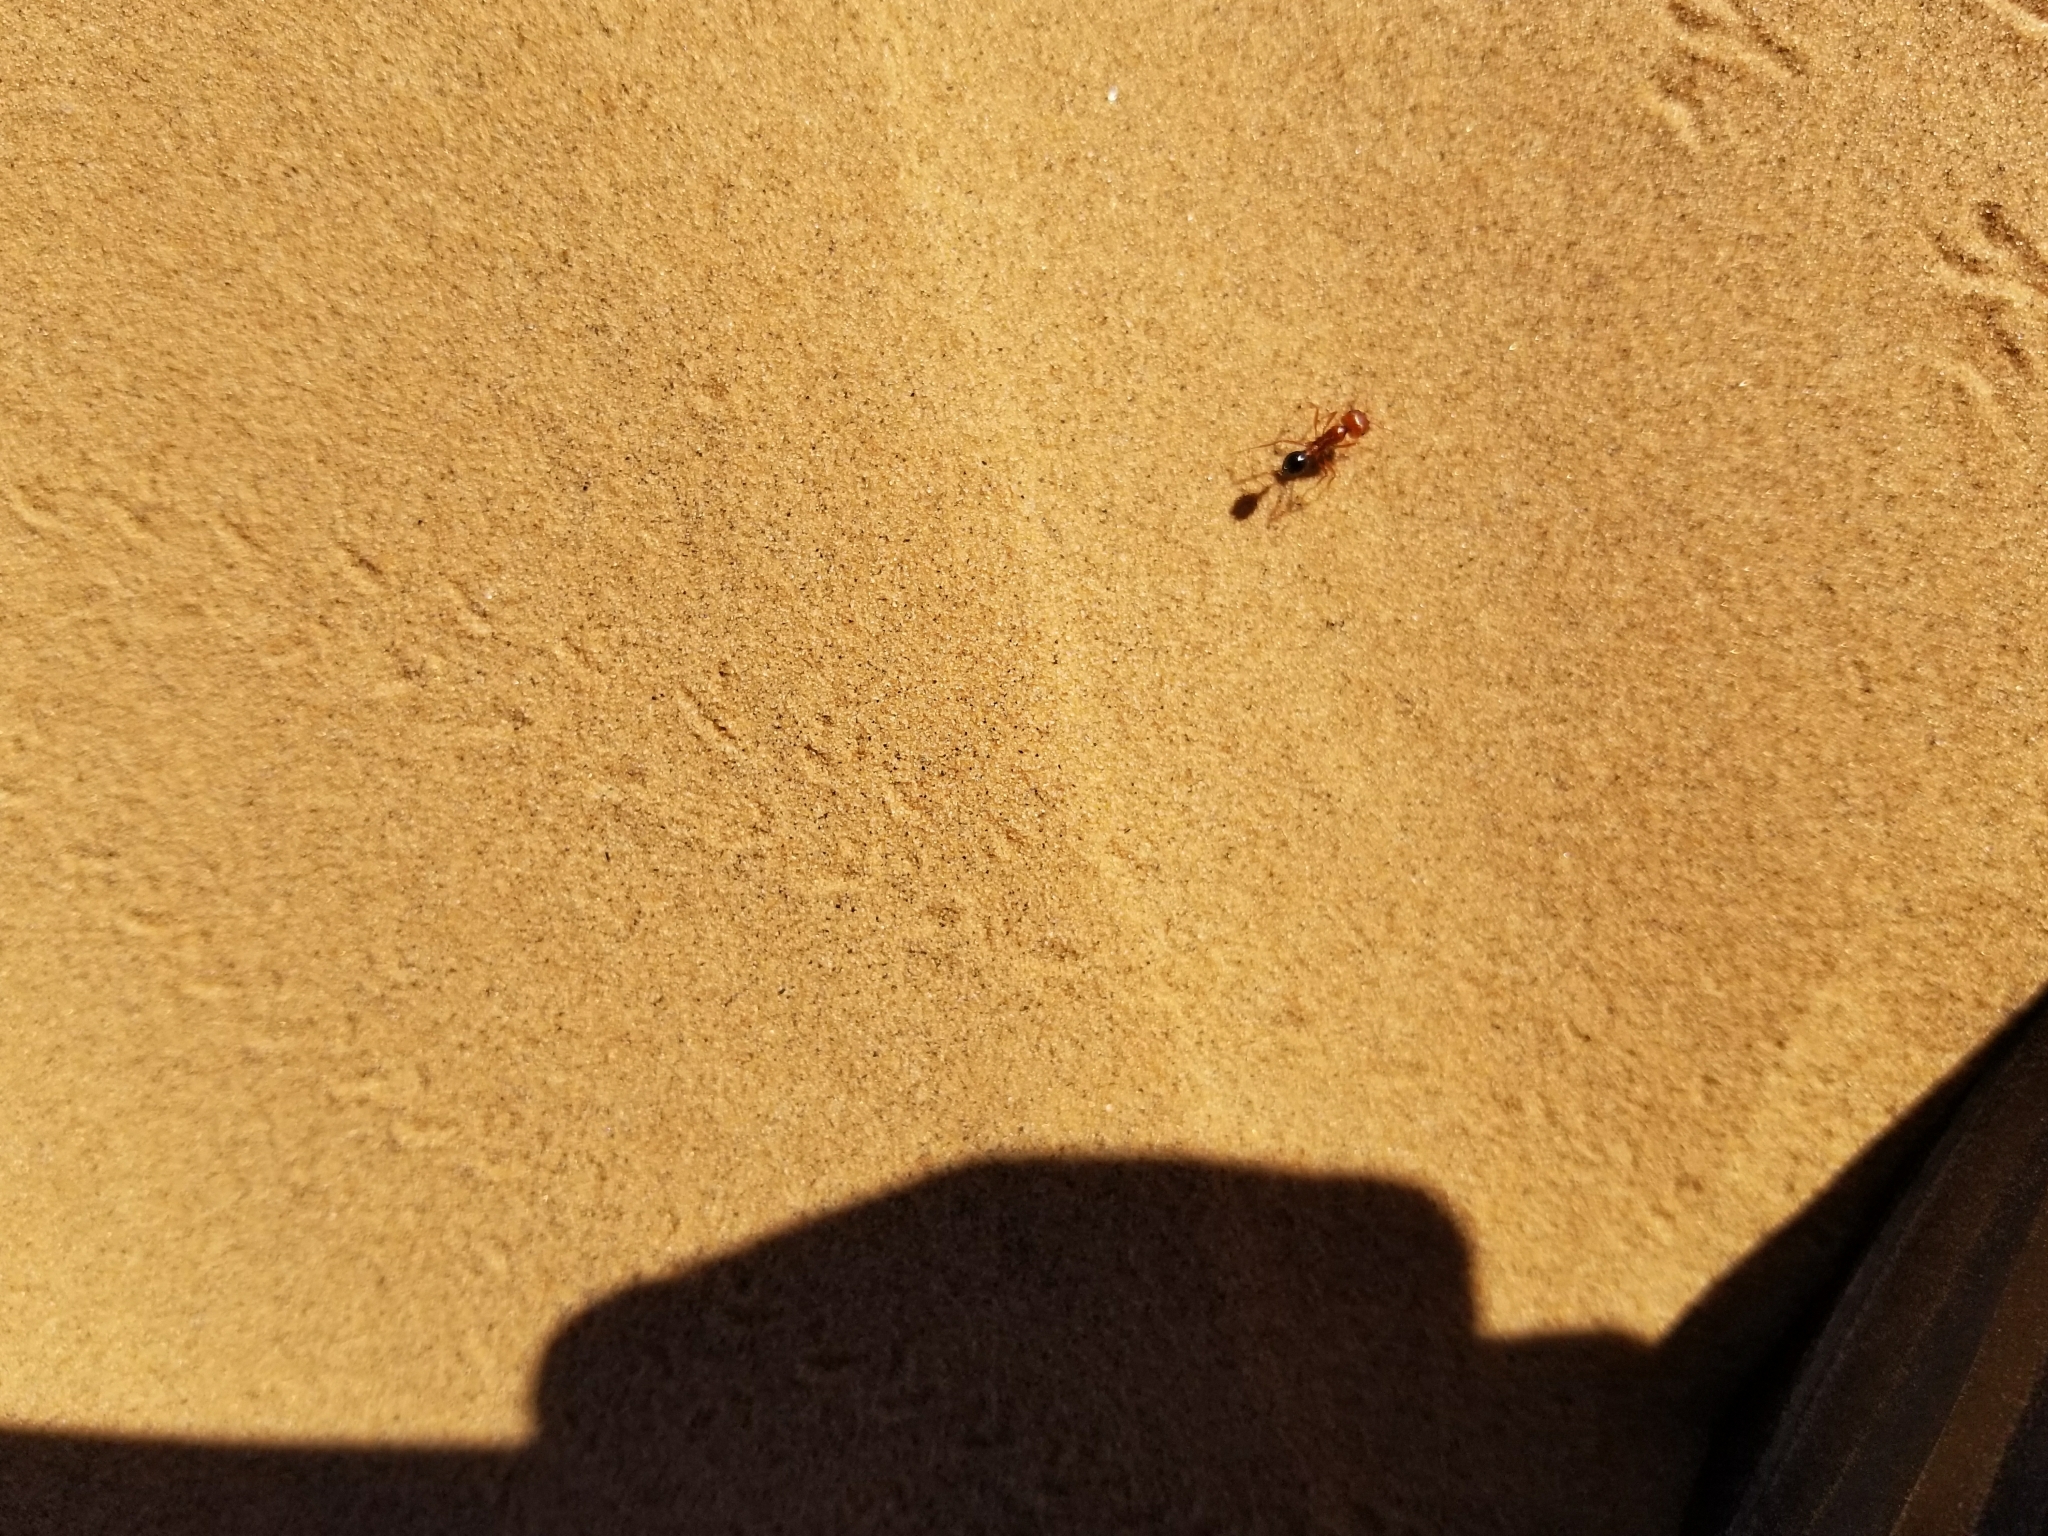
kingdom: Animalia
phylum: Arthropoda
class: Insecta
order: Hymenoptera
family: Formicidae
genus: Pogonomyrmex
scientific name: Pogonomyrmex californicus
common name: California harvester ant
